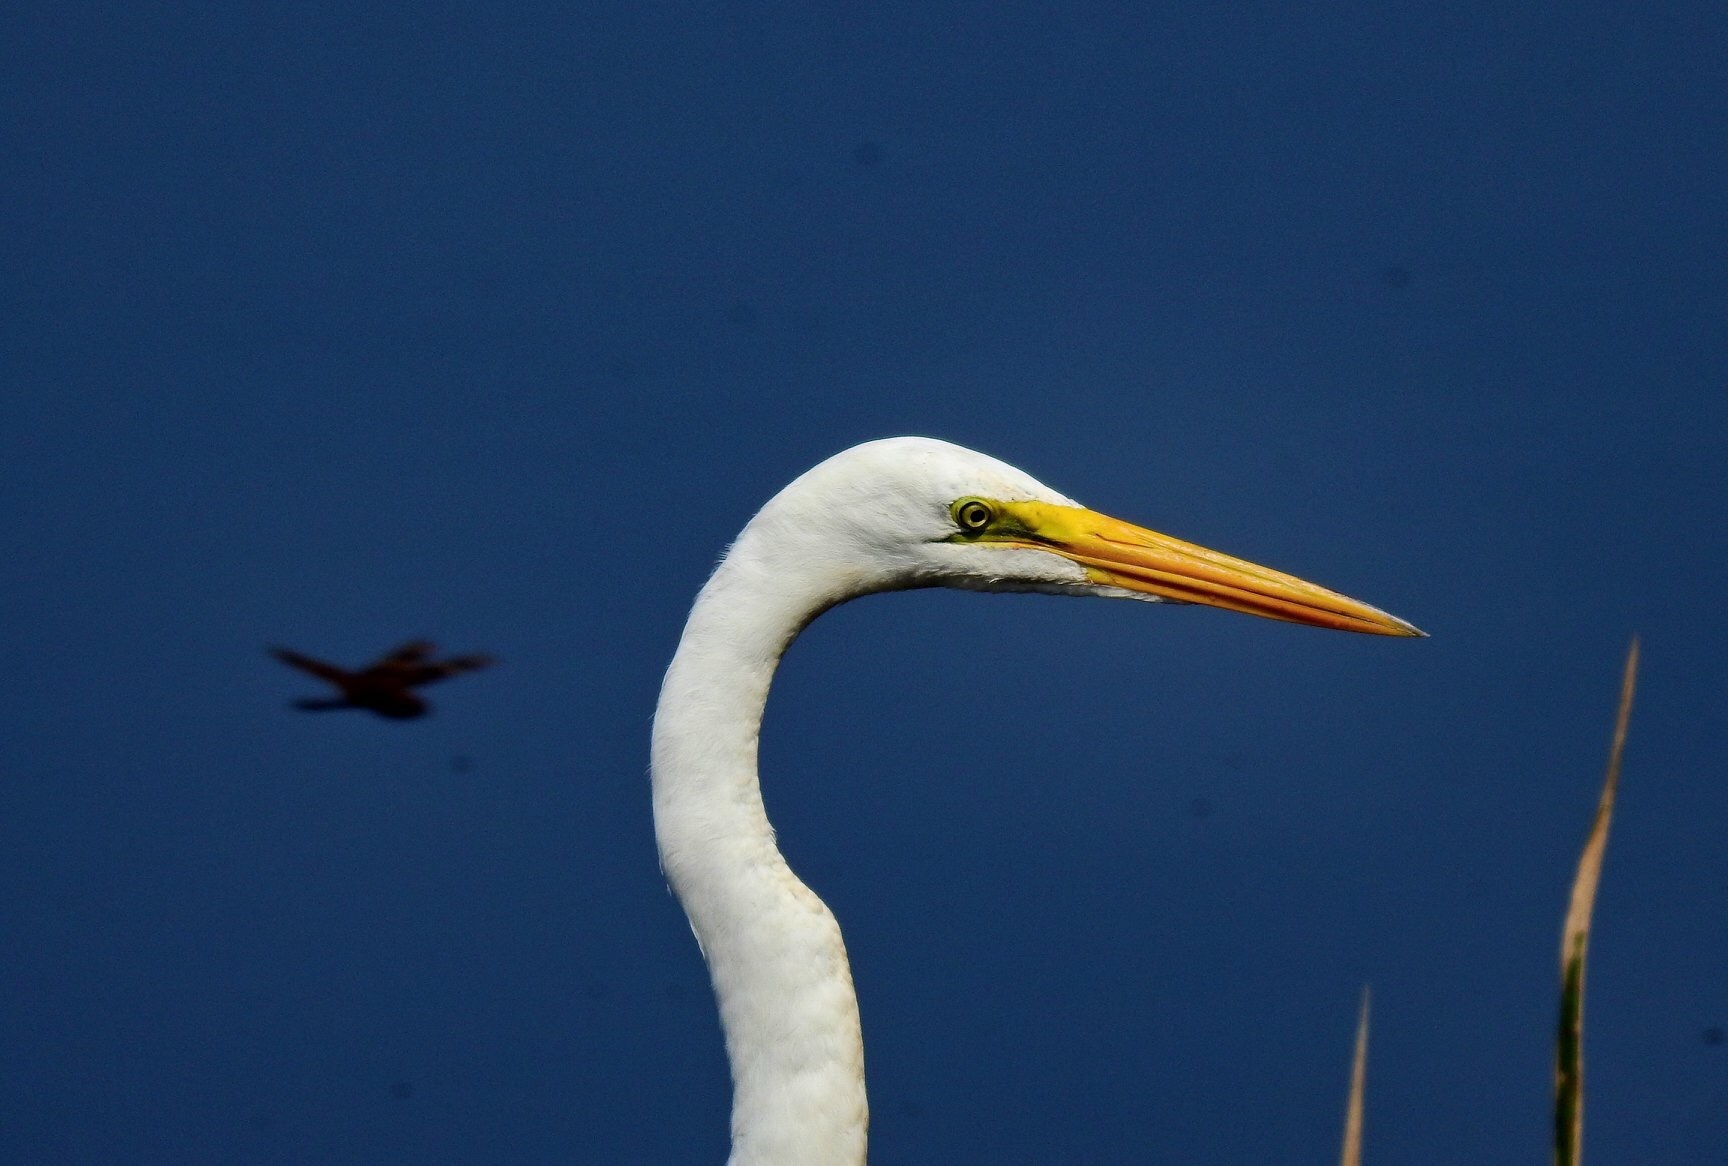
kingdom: Animalia
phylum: Chordata
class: Aves
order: Pelecaniformes
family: Ardeidae
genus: Ardea
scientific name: Ardea alba
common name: Great egret
